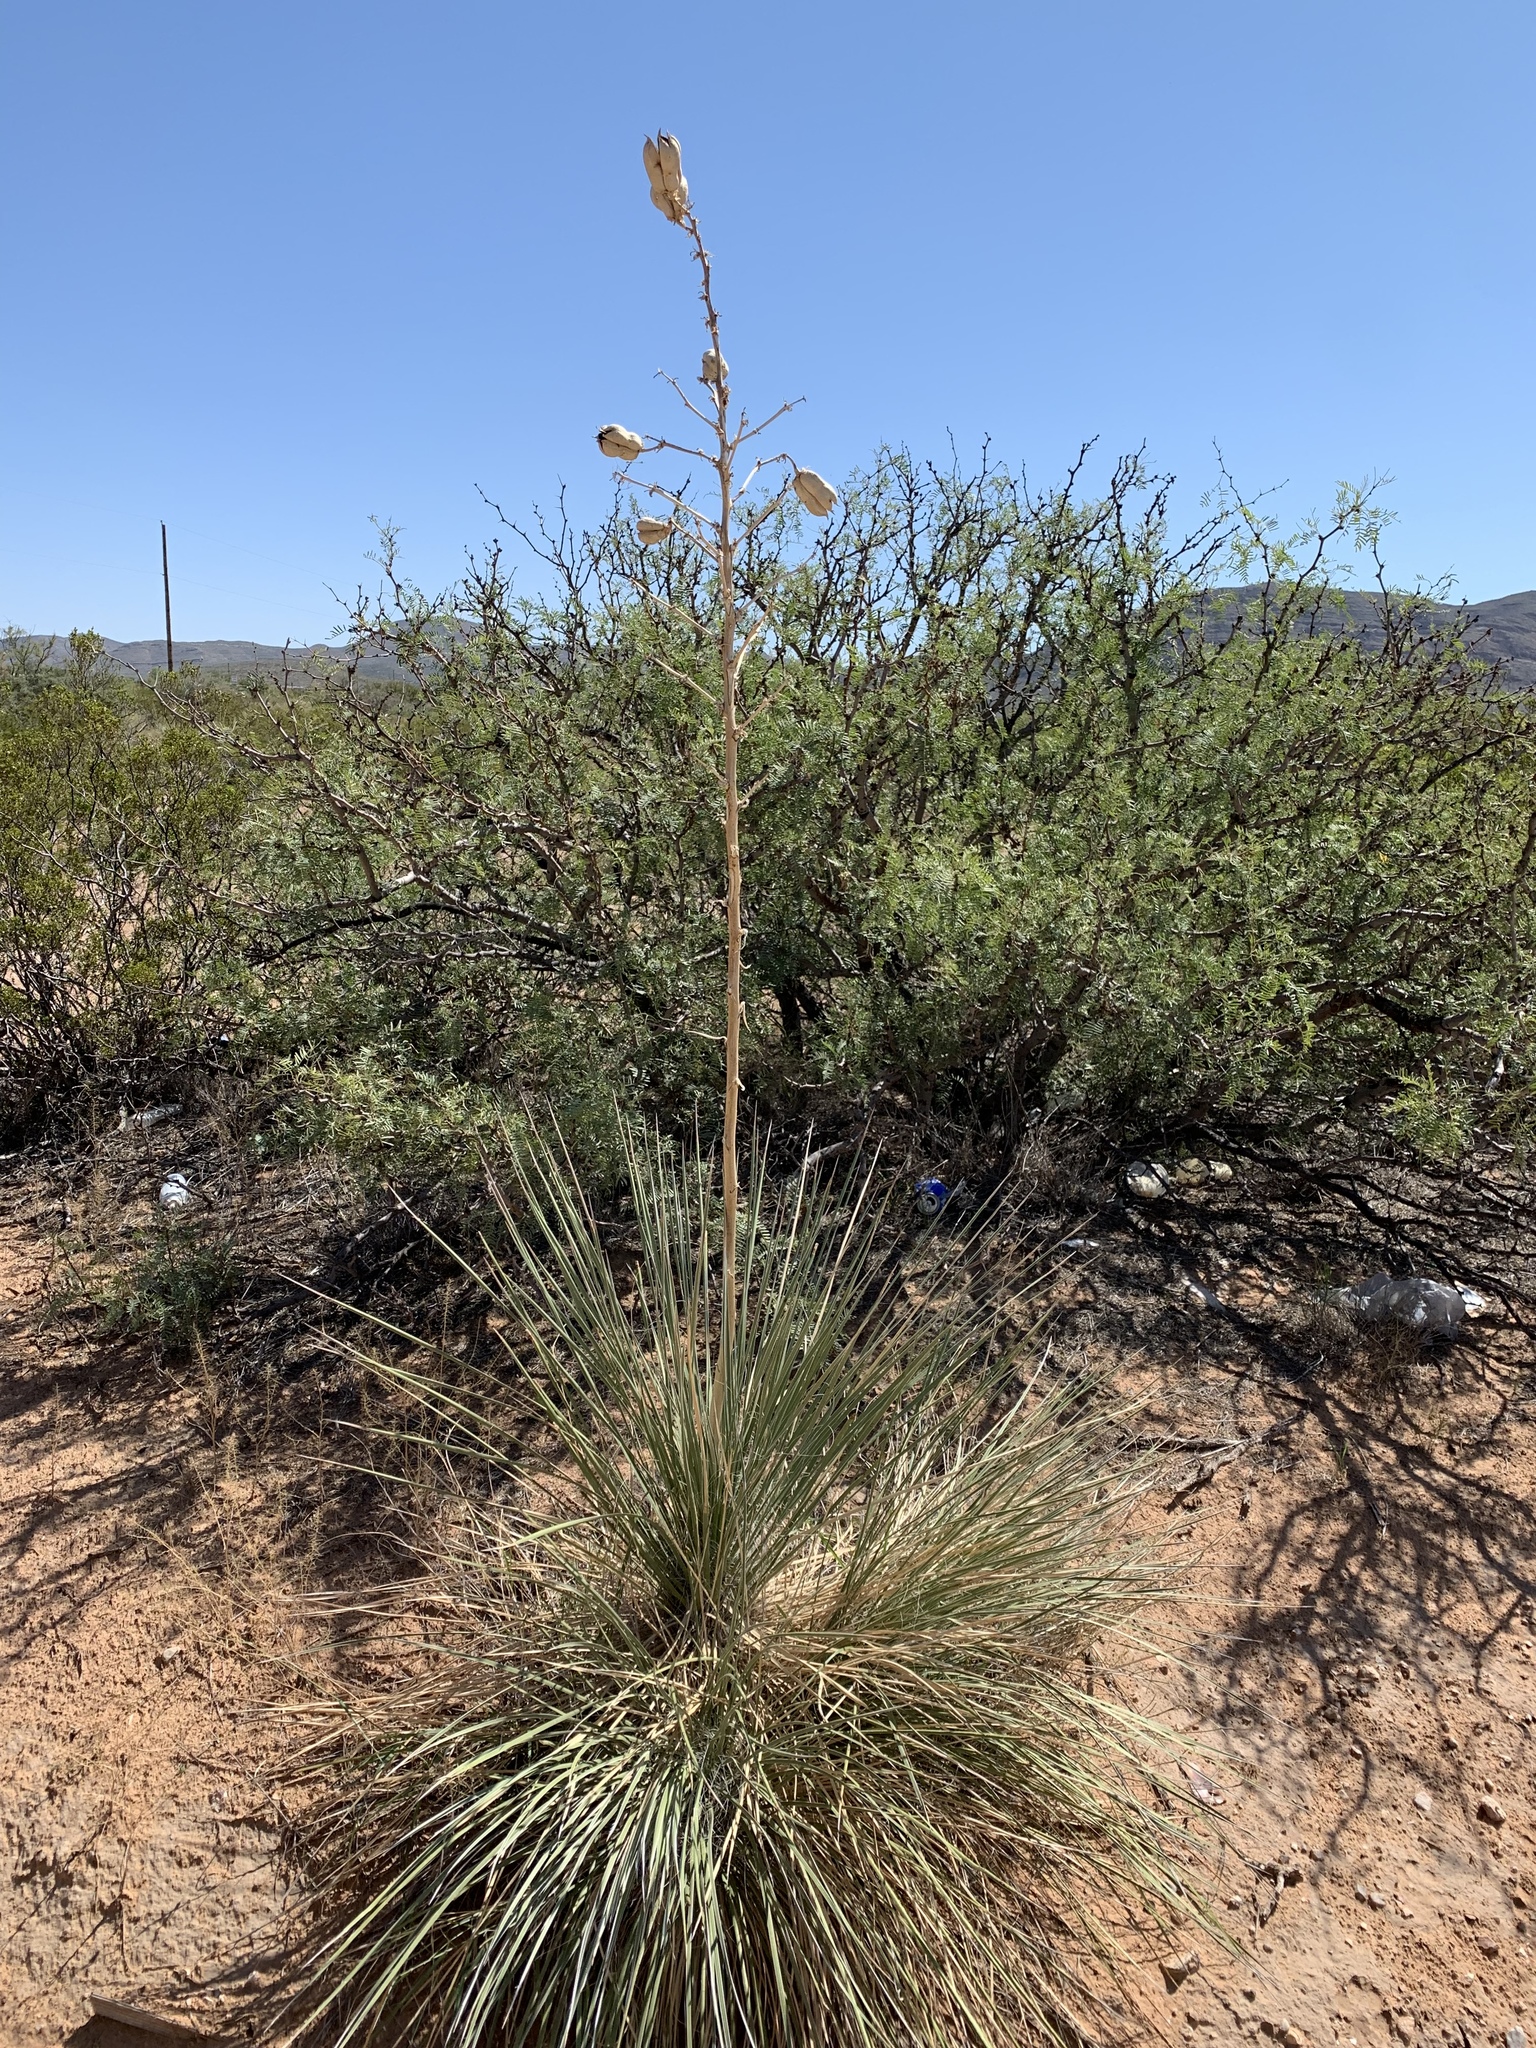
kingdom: Plantae
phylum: Tracheophyta
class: Liliopsida
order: Asparagales
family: Asparagaceae
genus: Yucca
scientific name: Yucca elata
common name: Palmella
